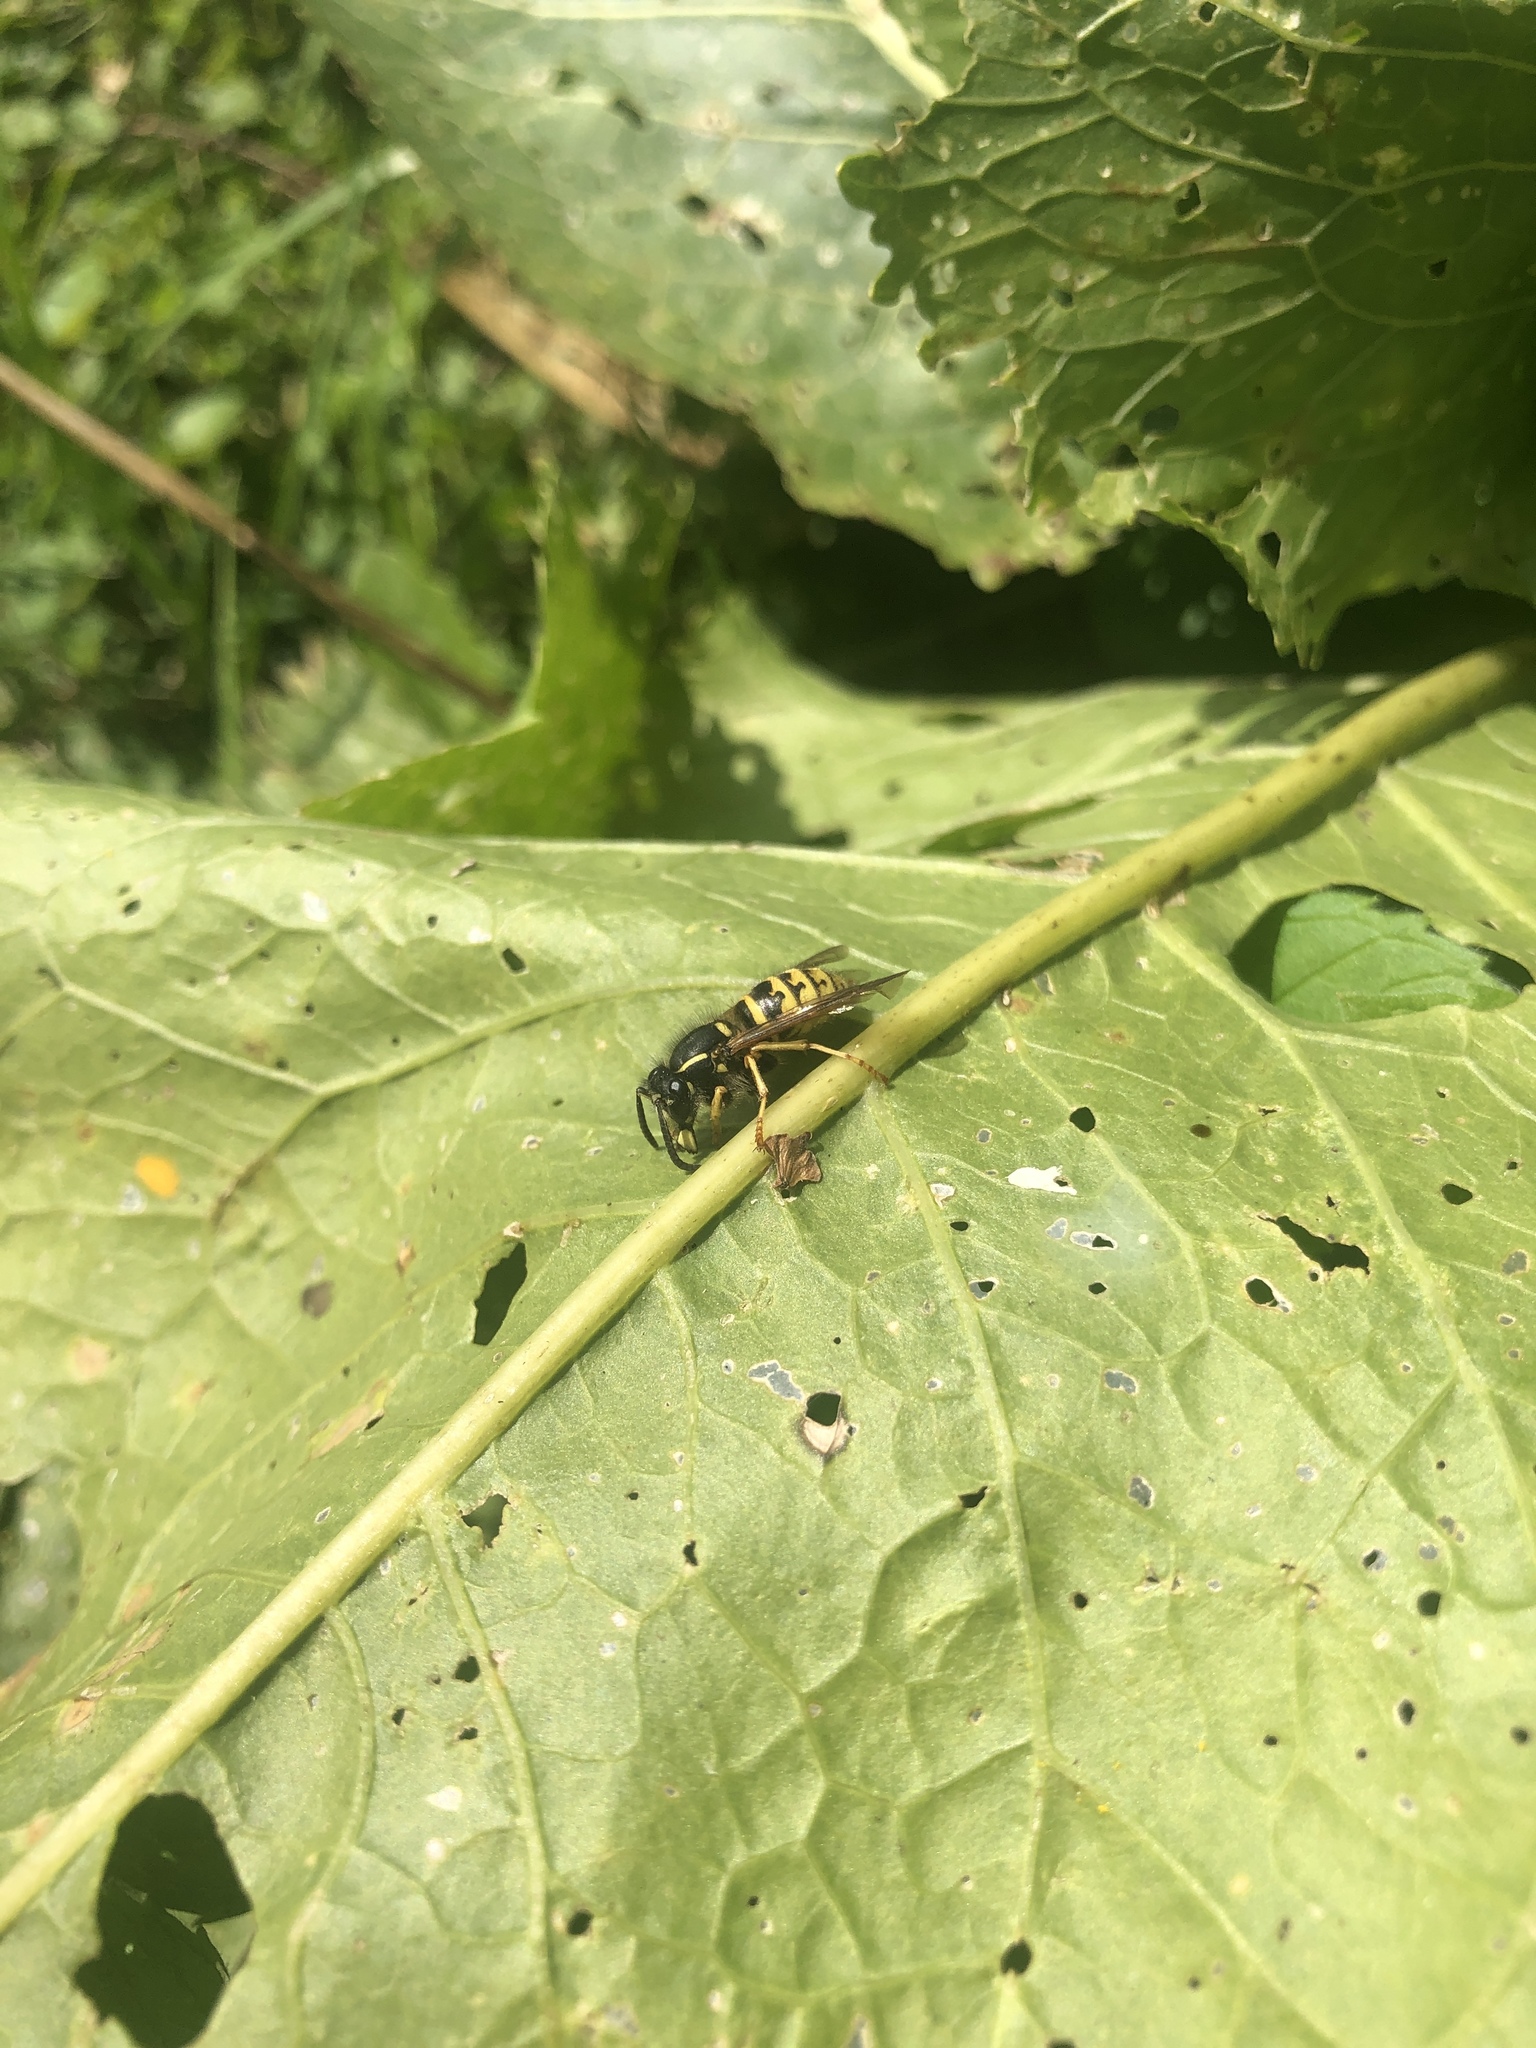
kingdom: Animalia
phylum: Arthropoda
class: Insecta
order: Hymenoptera
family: Vespidae
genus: Dolichovespula
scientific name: Dolichovespula saxonica
